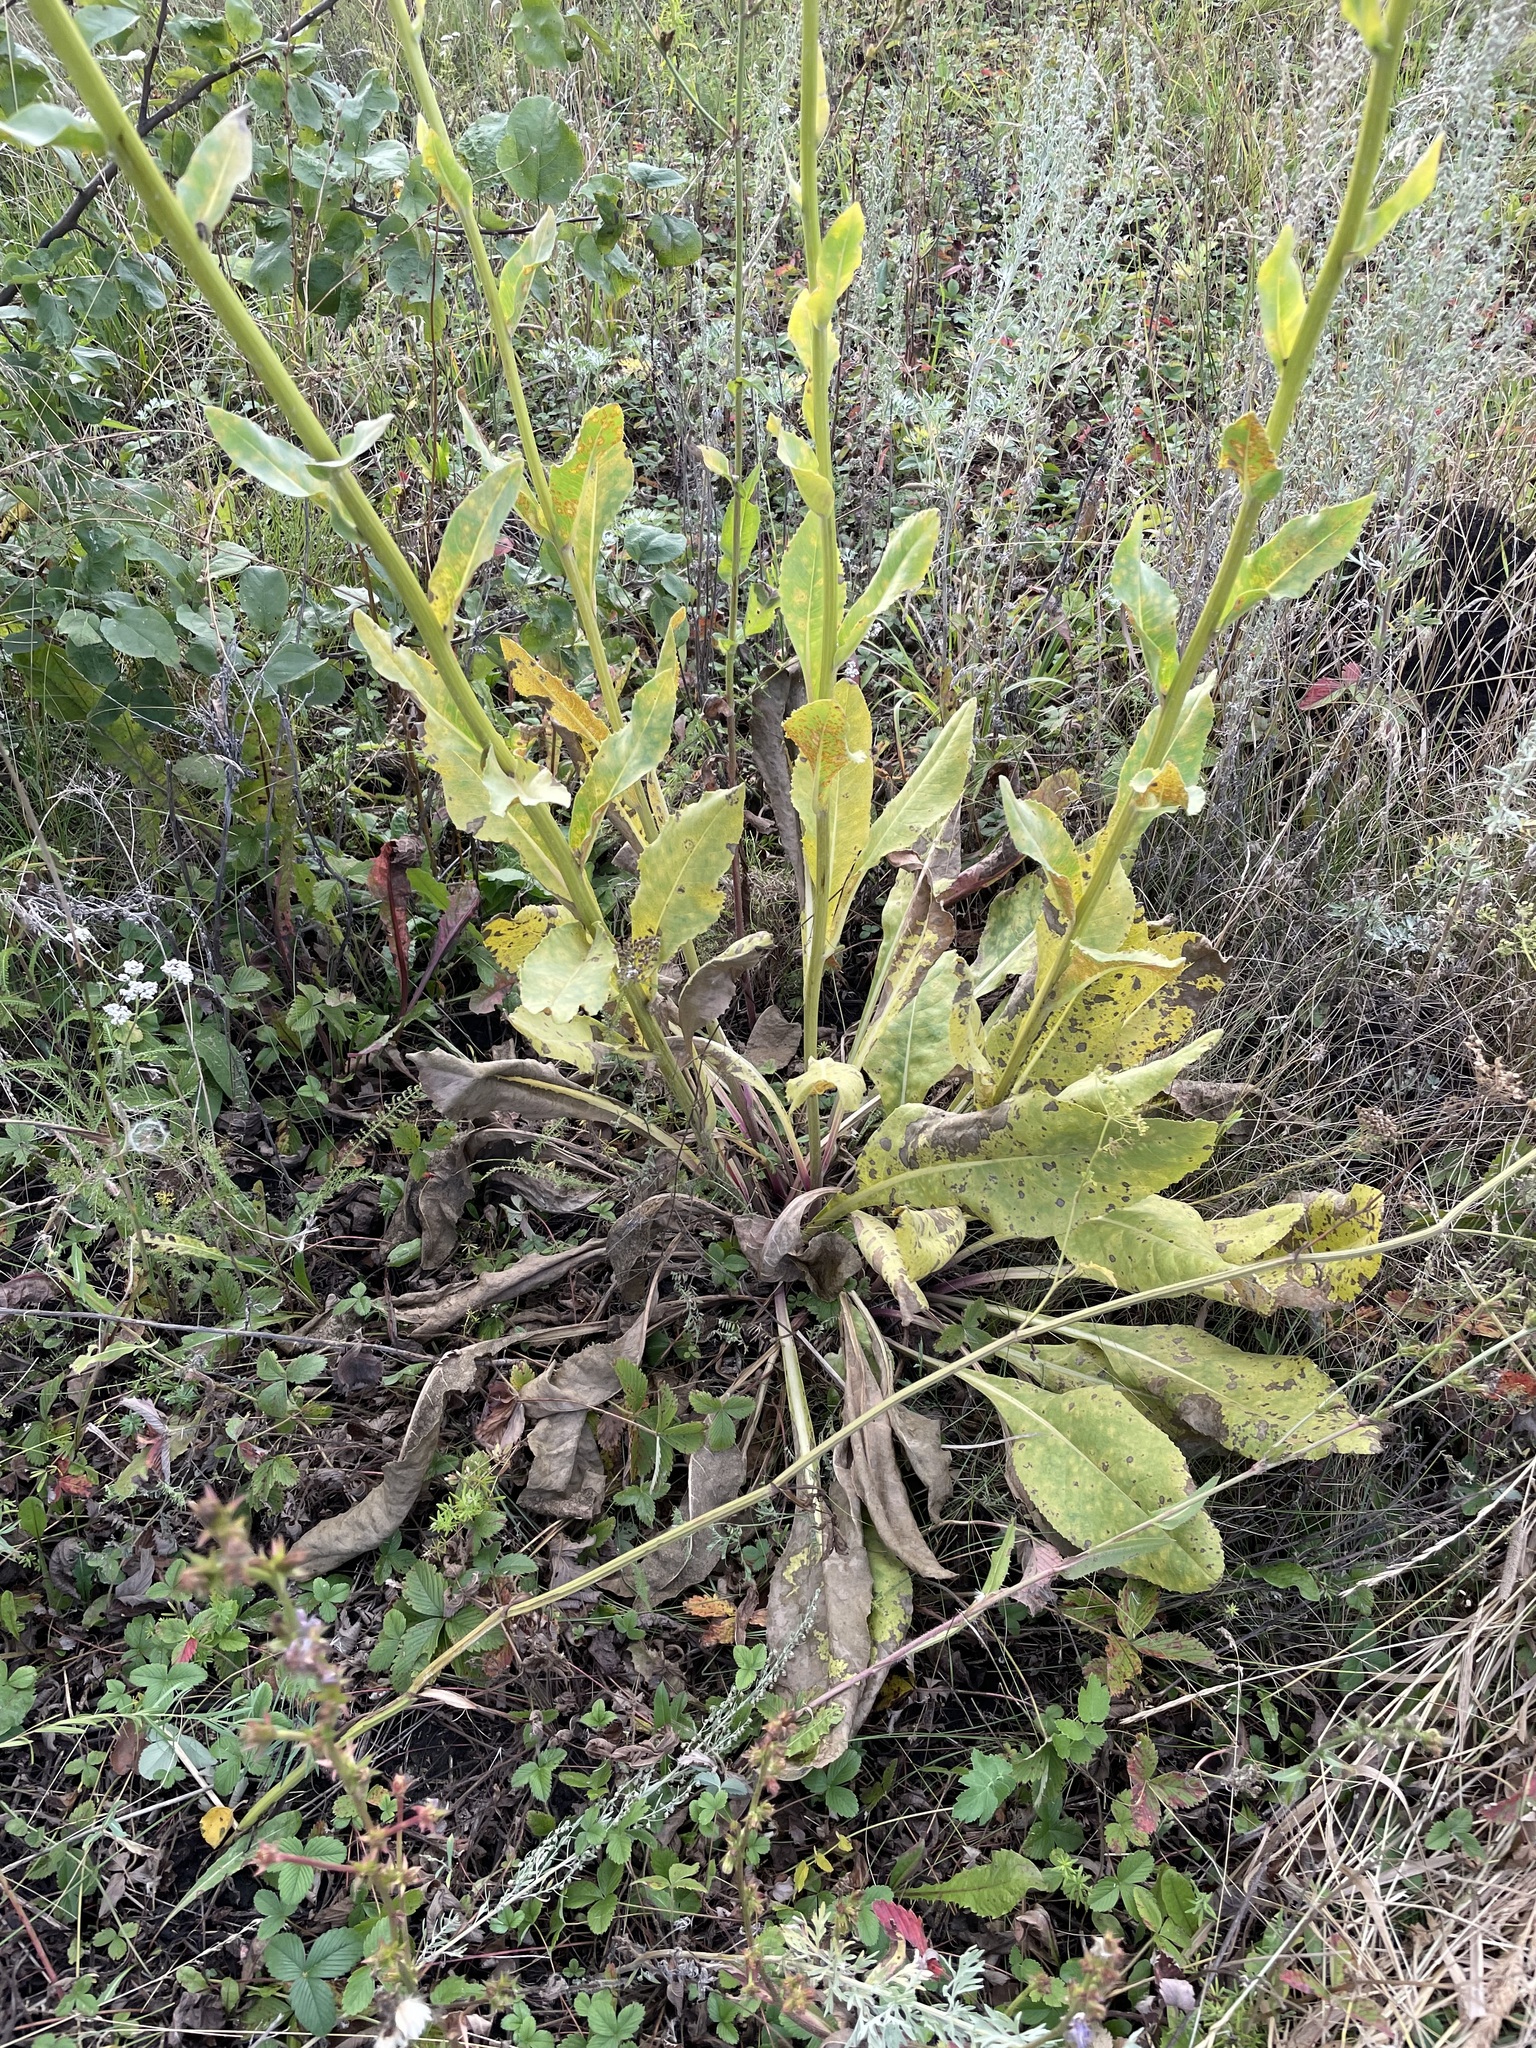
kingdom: Plantae
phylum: Tracheophyta
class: Magnoliopsida
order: Asterales
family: Asteraceae
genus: Senecio
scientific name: Senecio doria
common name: Golden ragwort
